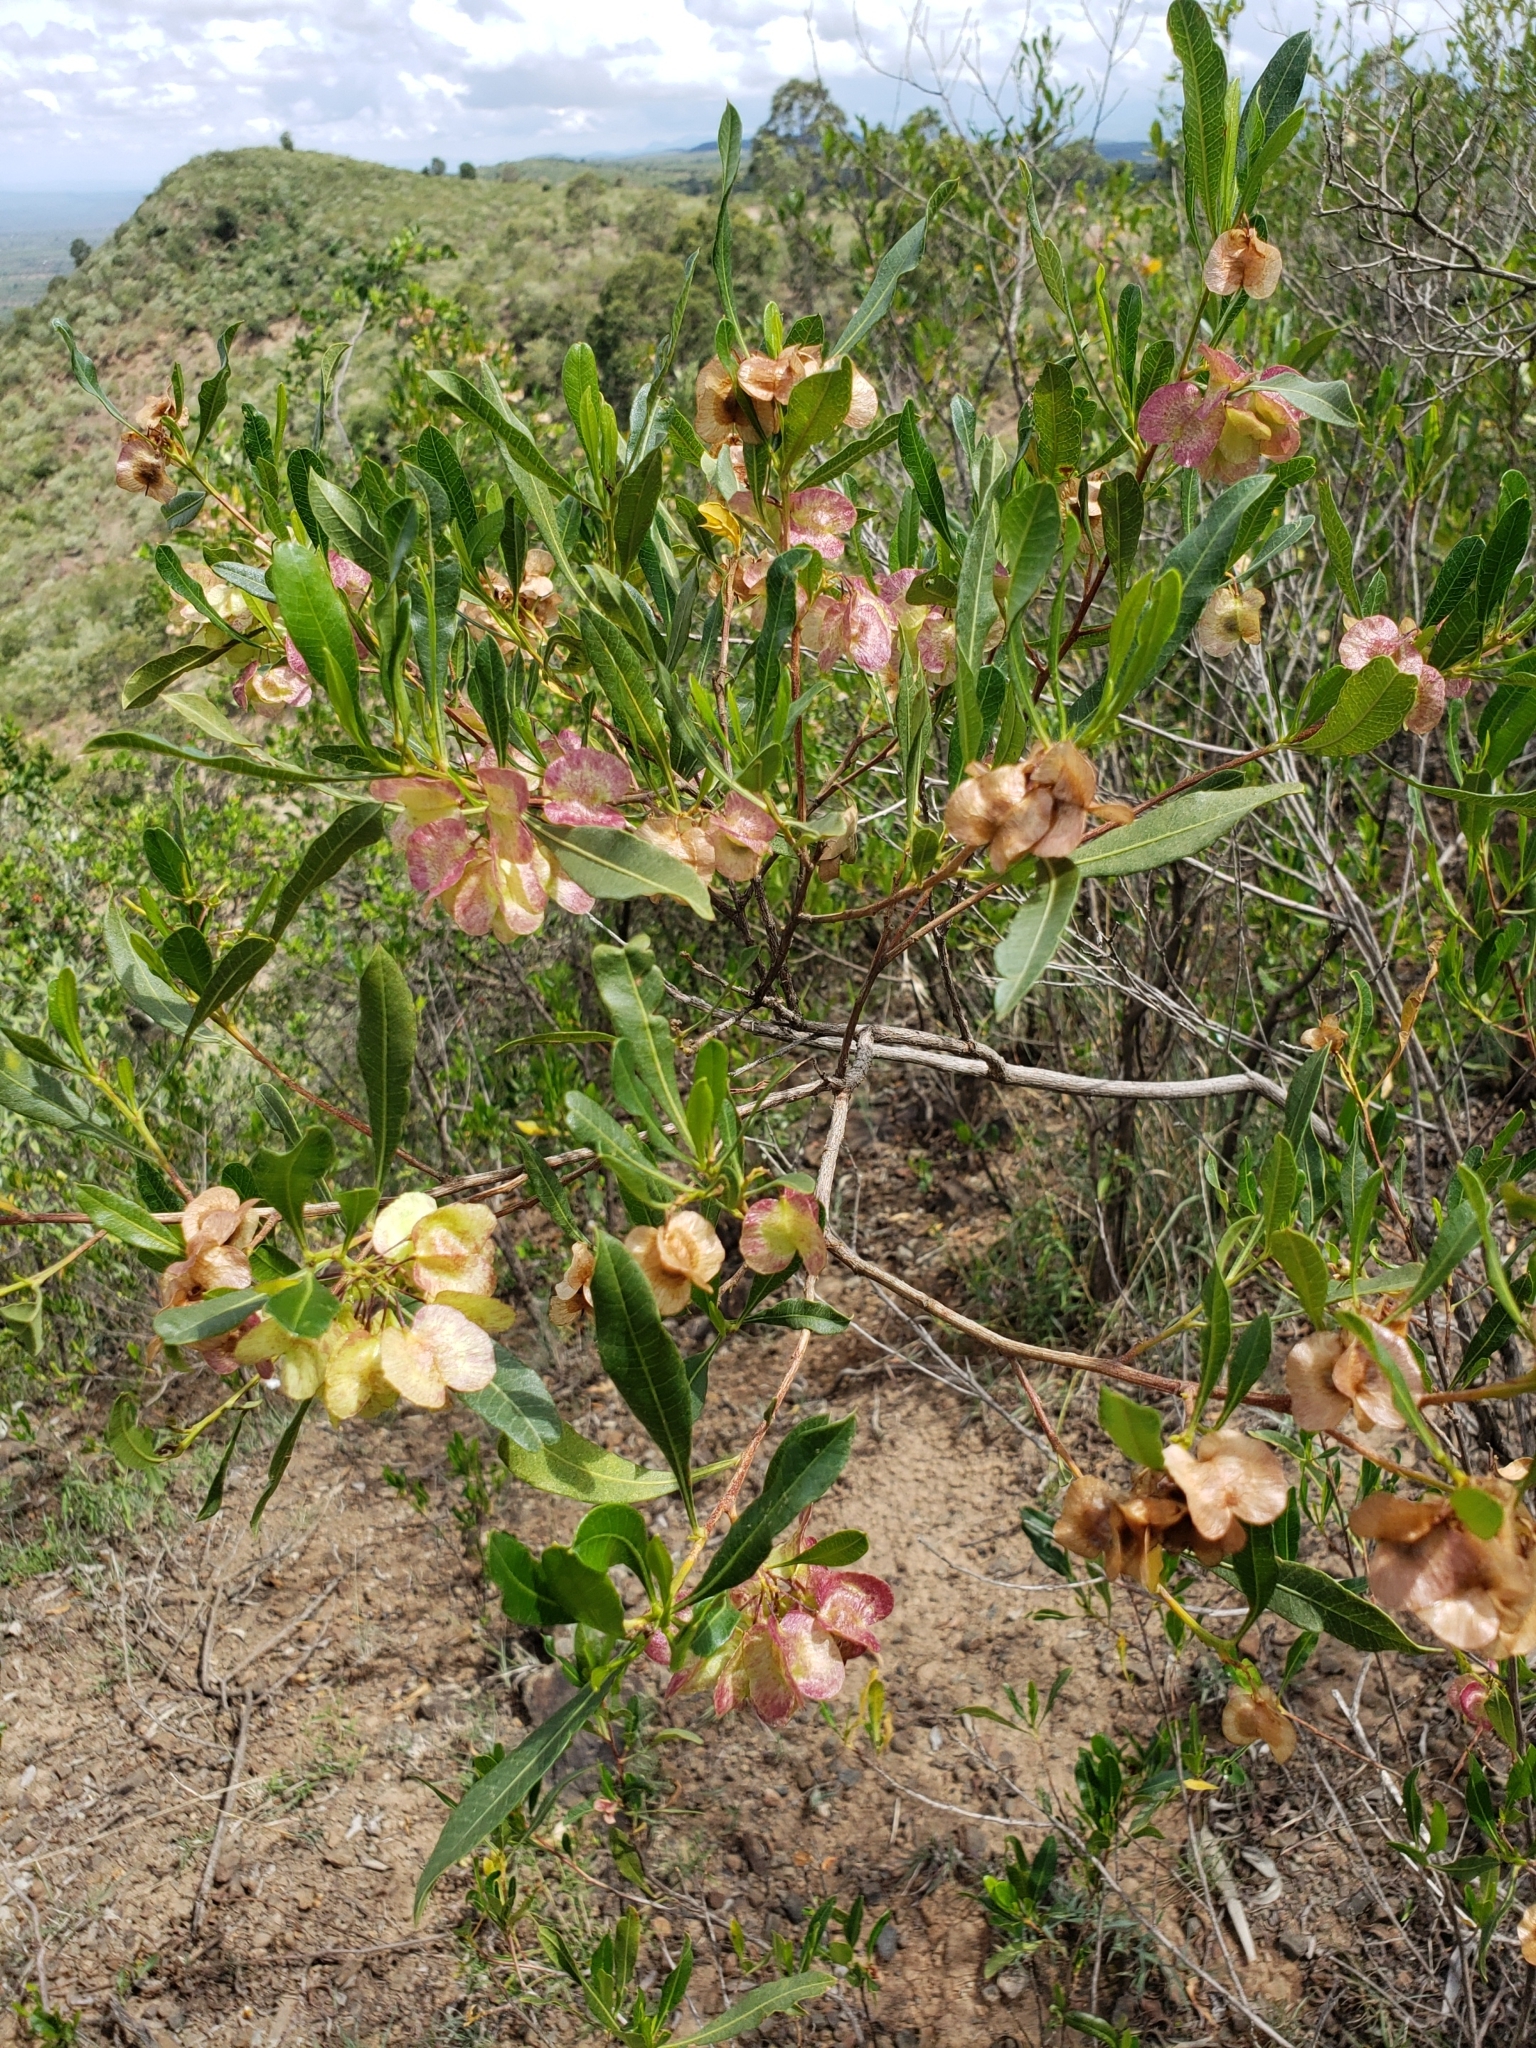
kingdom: Plantae
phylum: Tracheophyta
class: Magnoliopsida
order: Sapindales
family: Sapindaceae
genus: Dodonaea
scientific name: Dodonaea viscosa
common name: Hopbush
